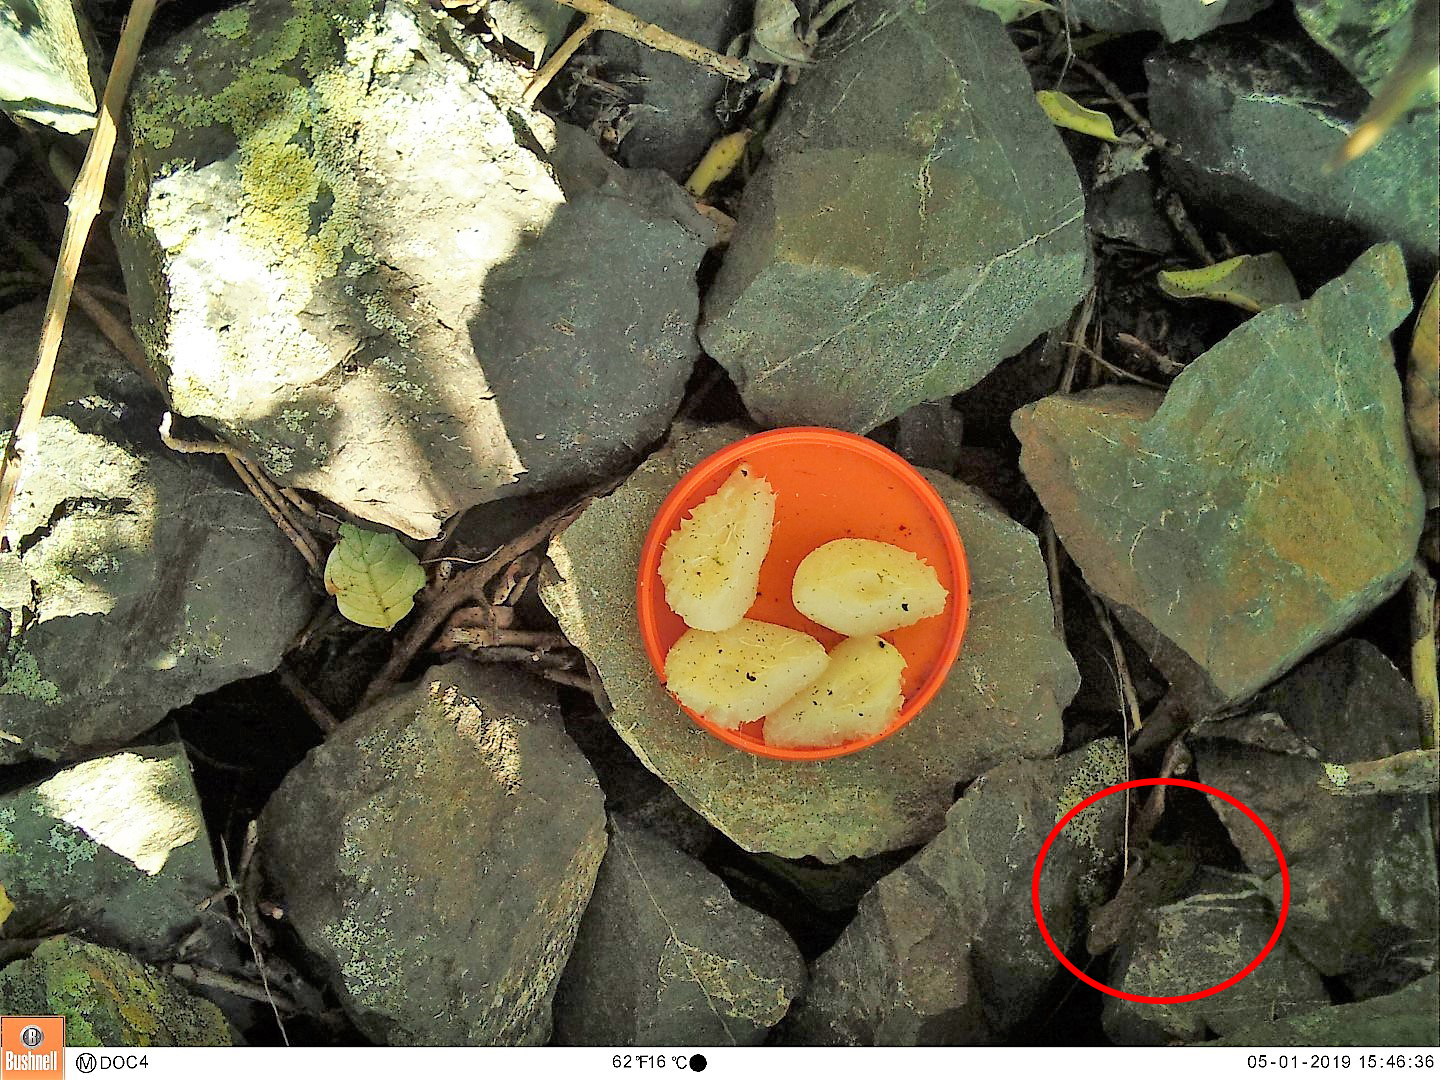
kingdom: Animalia
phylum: Chordata
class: Squamata
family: Diplodactylidae
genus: Woodworthia
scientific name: Woodworthia maculata
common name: Raukawa gecko
